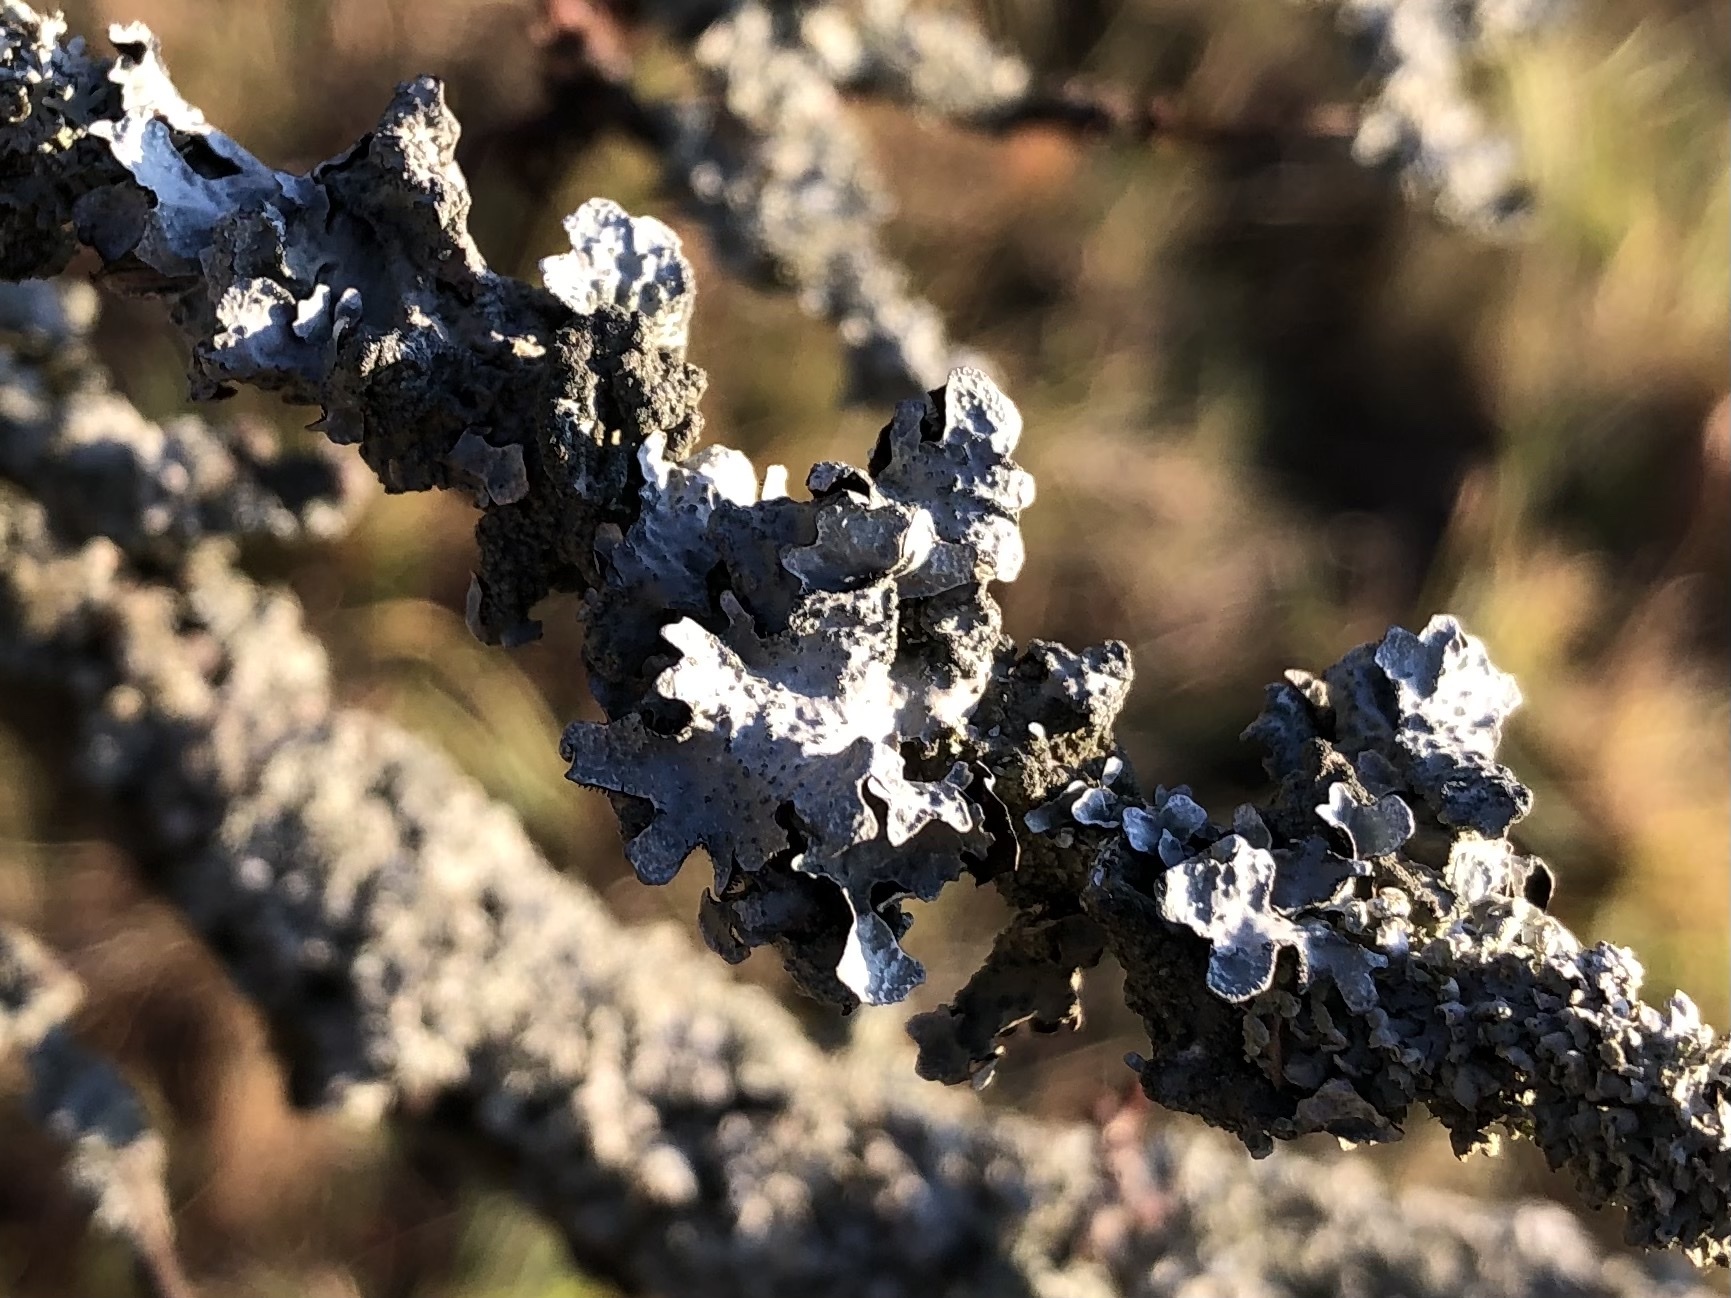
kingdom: Fungi
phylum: Ascomycota
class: Lecanoromycetes
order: Lecanorales
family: Parmeliaceae
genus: Parmelia
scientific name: Parmelia sulcata
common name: Netted shield lichen
